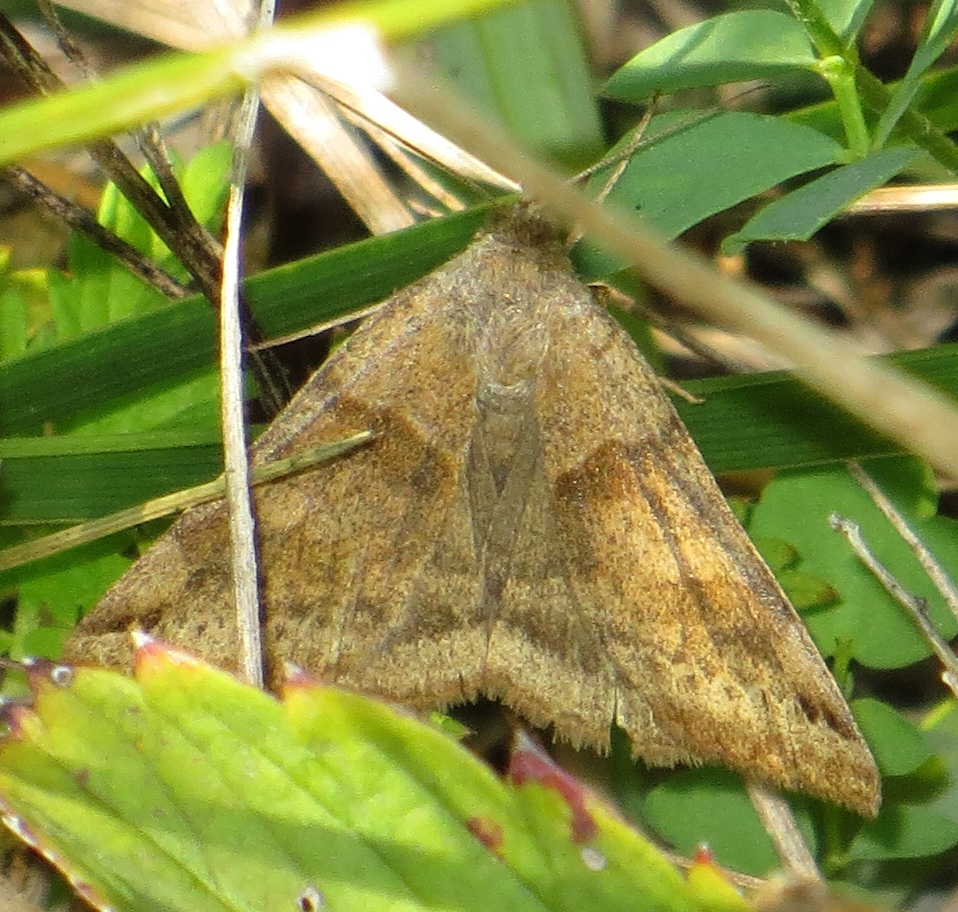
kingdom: Animalia
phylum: Arthropoda
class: Insecta
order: Lepidoptera
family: Erebidae
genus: Caenurgina
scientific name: Caenurgina crassiuscula
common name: Double-barred
